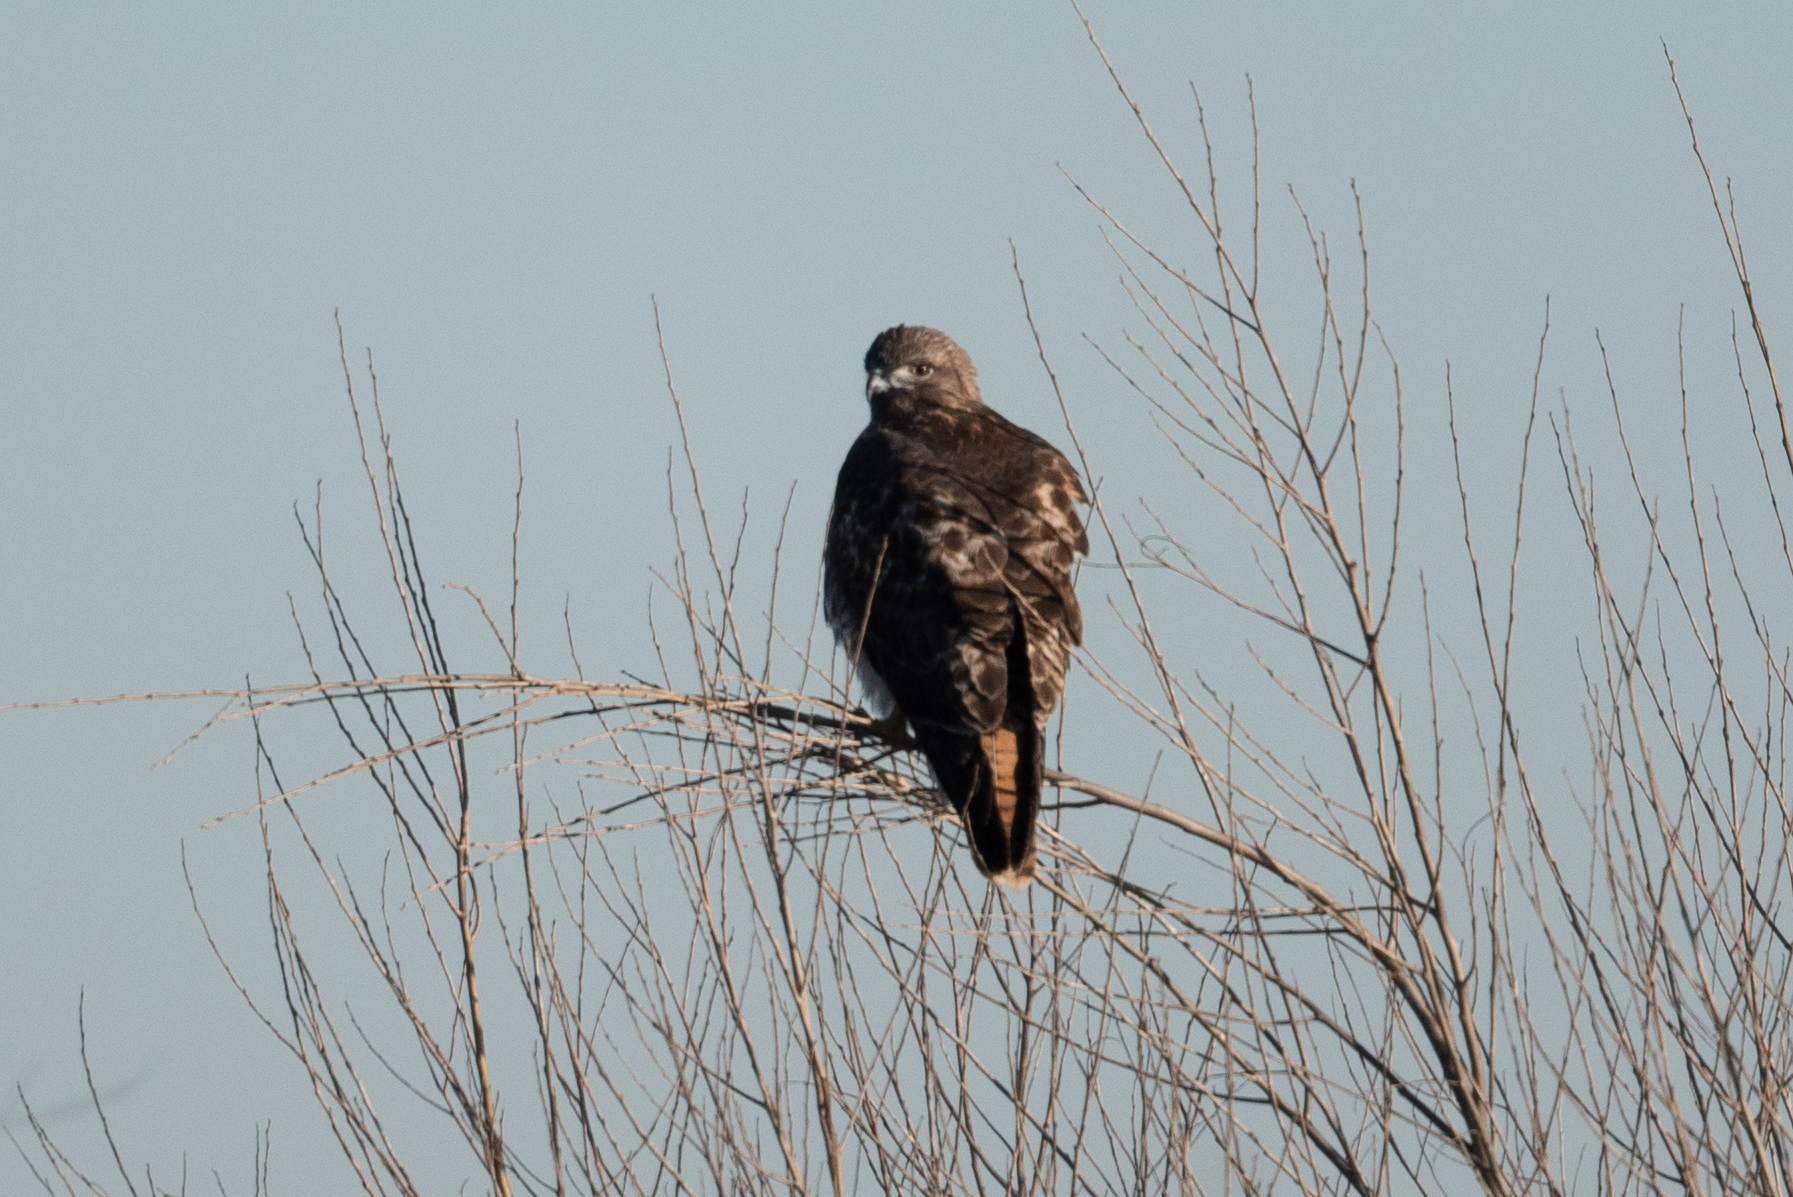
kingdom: Animalia
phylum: Chordata
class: Aves
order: Accipitriformes
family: Accipitridae
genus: Buteo
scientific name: Buteo jamaicensis
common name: Red-tailed hawk
